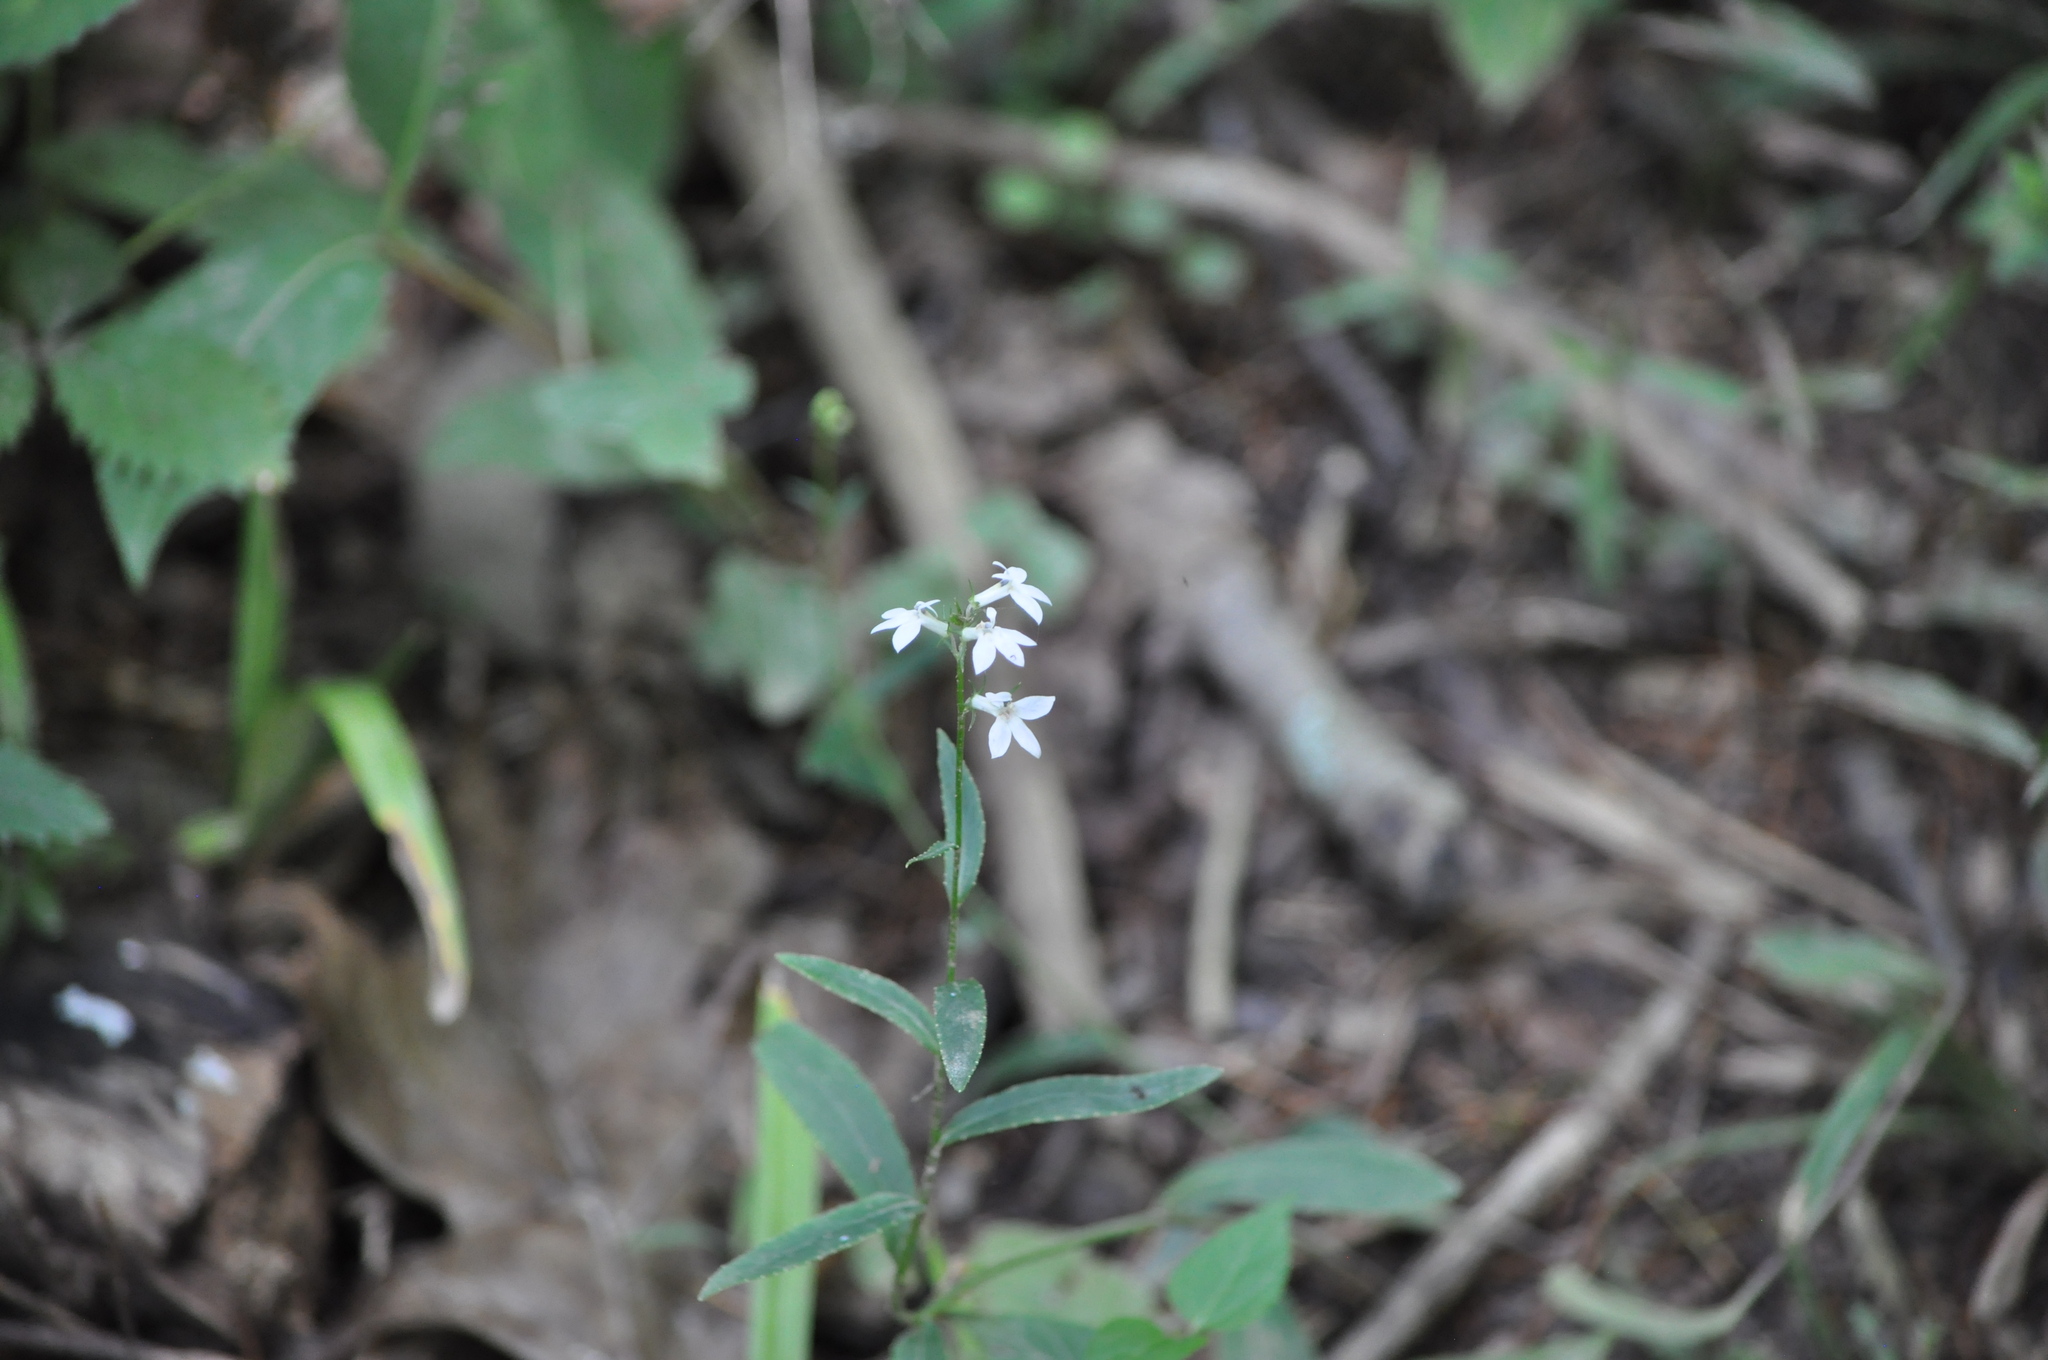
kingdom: Plantae
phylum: Tracheophyta
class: Magnoliopsida
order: Asterales
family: Campanulaceae
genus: Lobelia
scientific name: Lobelia spicata
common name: Pale-spike lobelia
